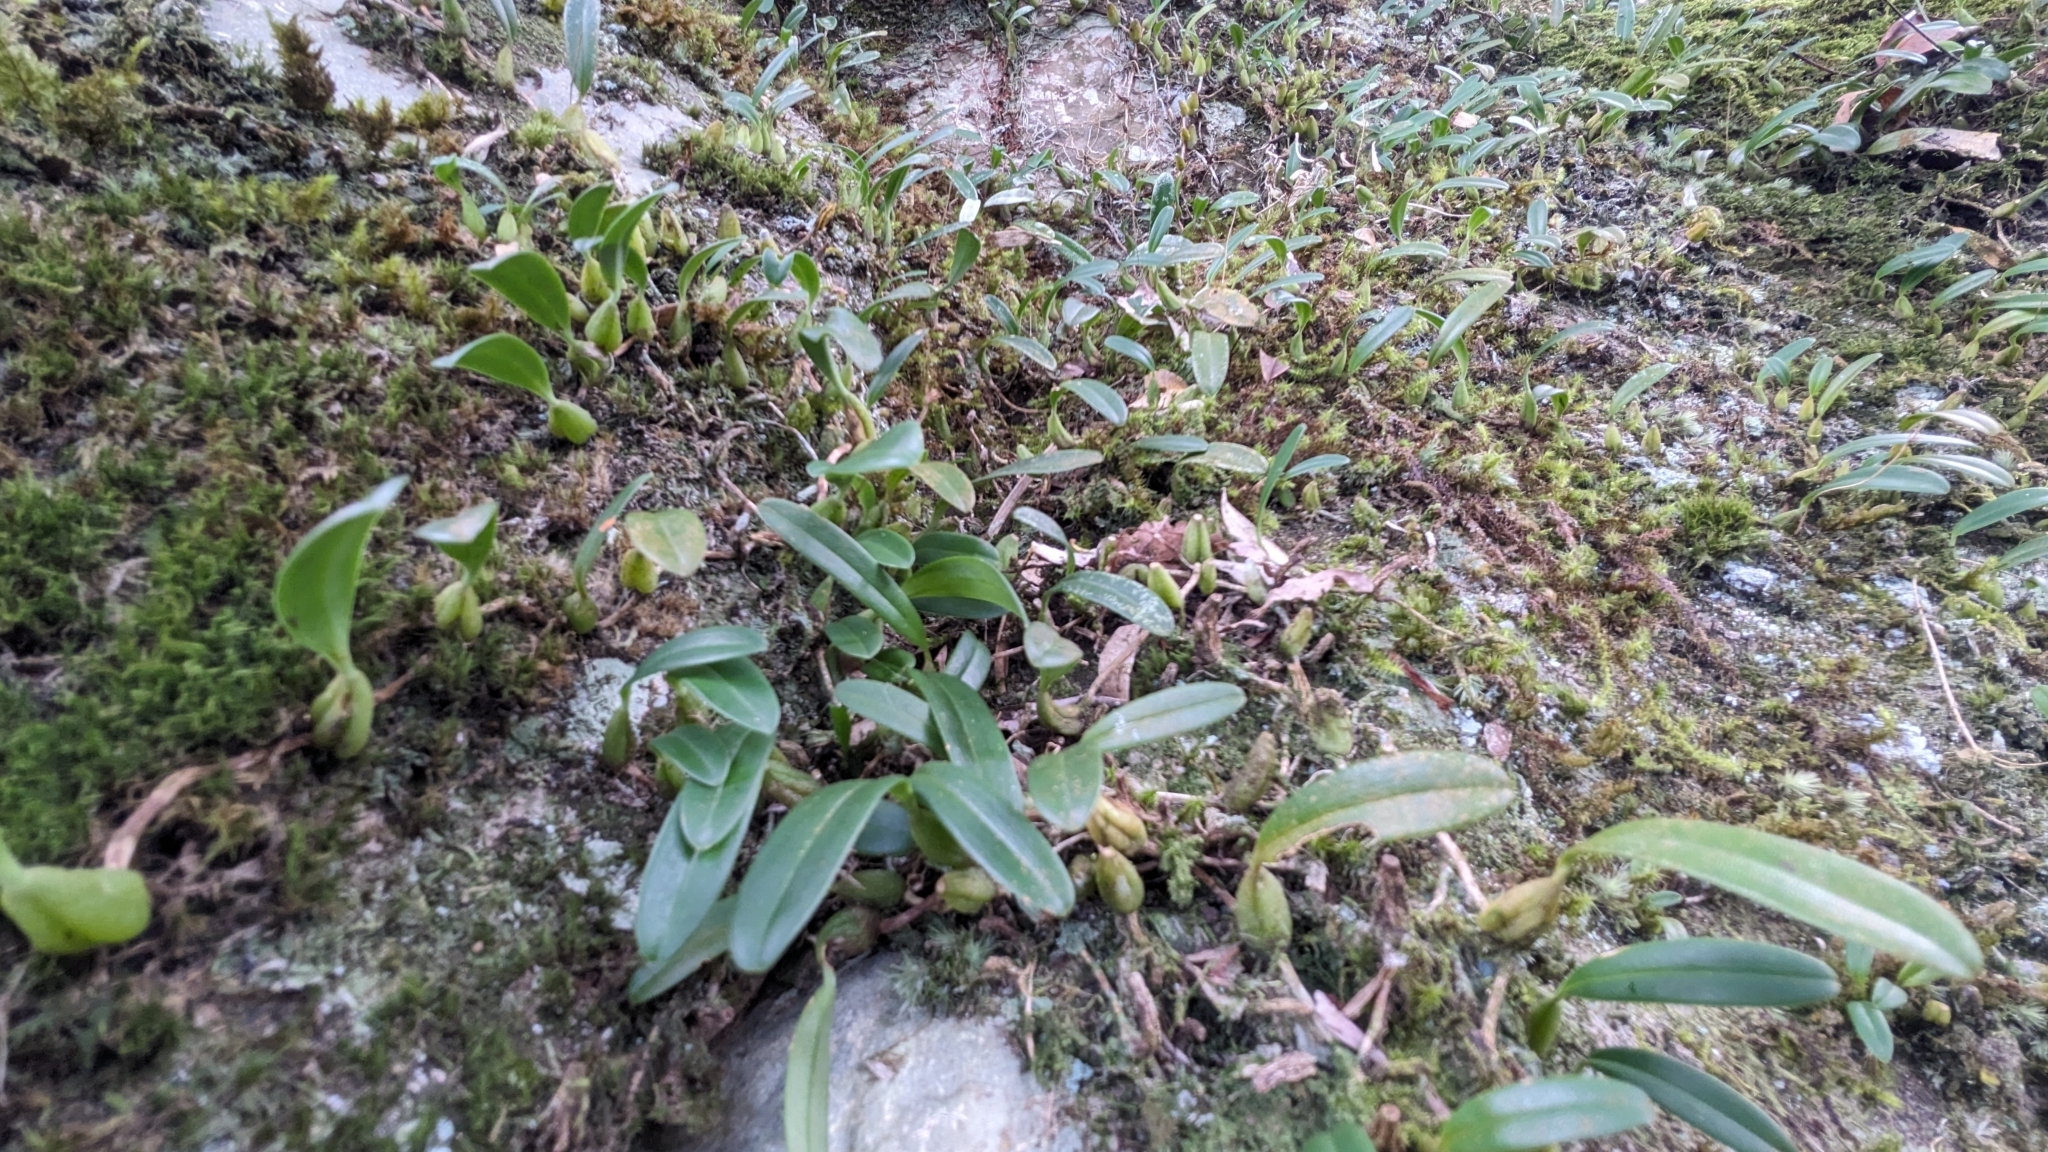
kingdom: Plantae
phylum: Tracheophyta
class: Liliopsida
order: Asparagales
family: Orchidaceae
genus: Bulbophyllum
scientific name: Bulbophyllum retusiusculum
